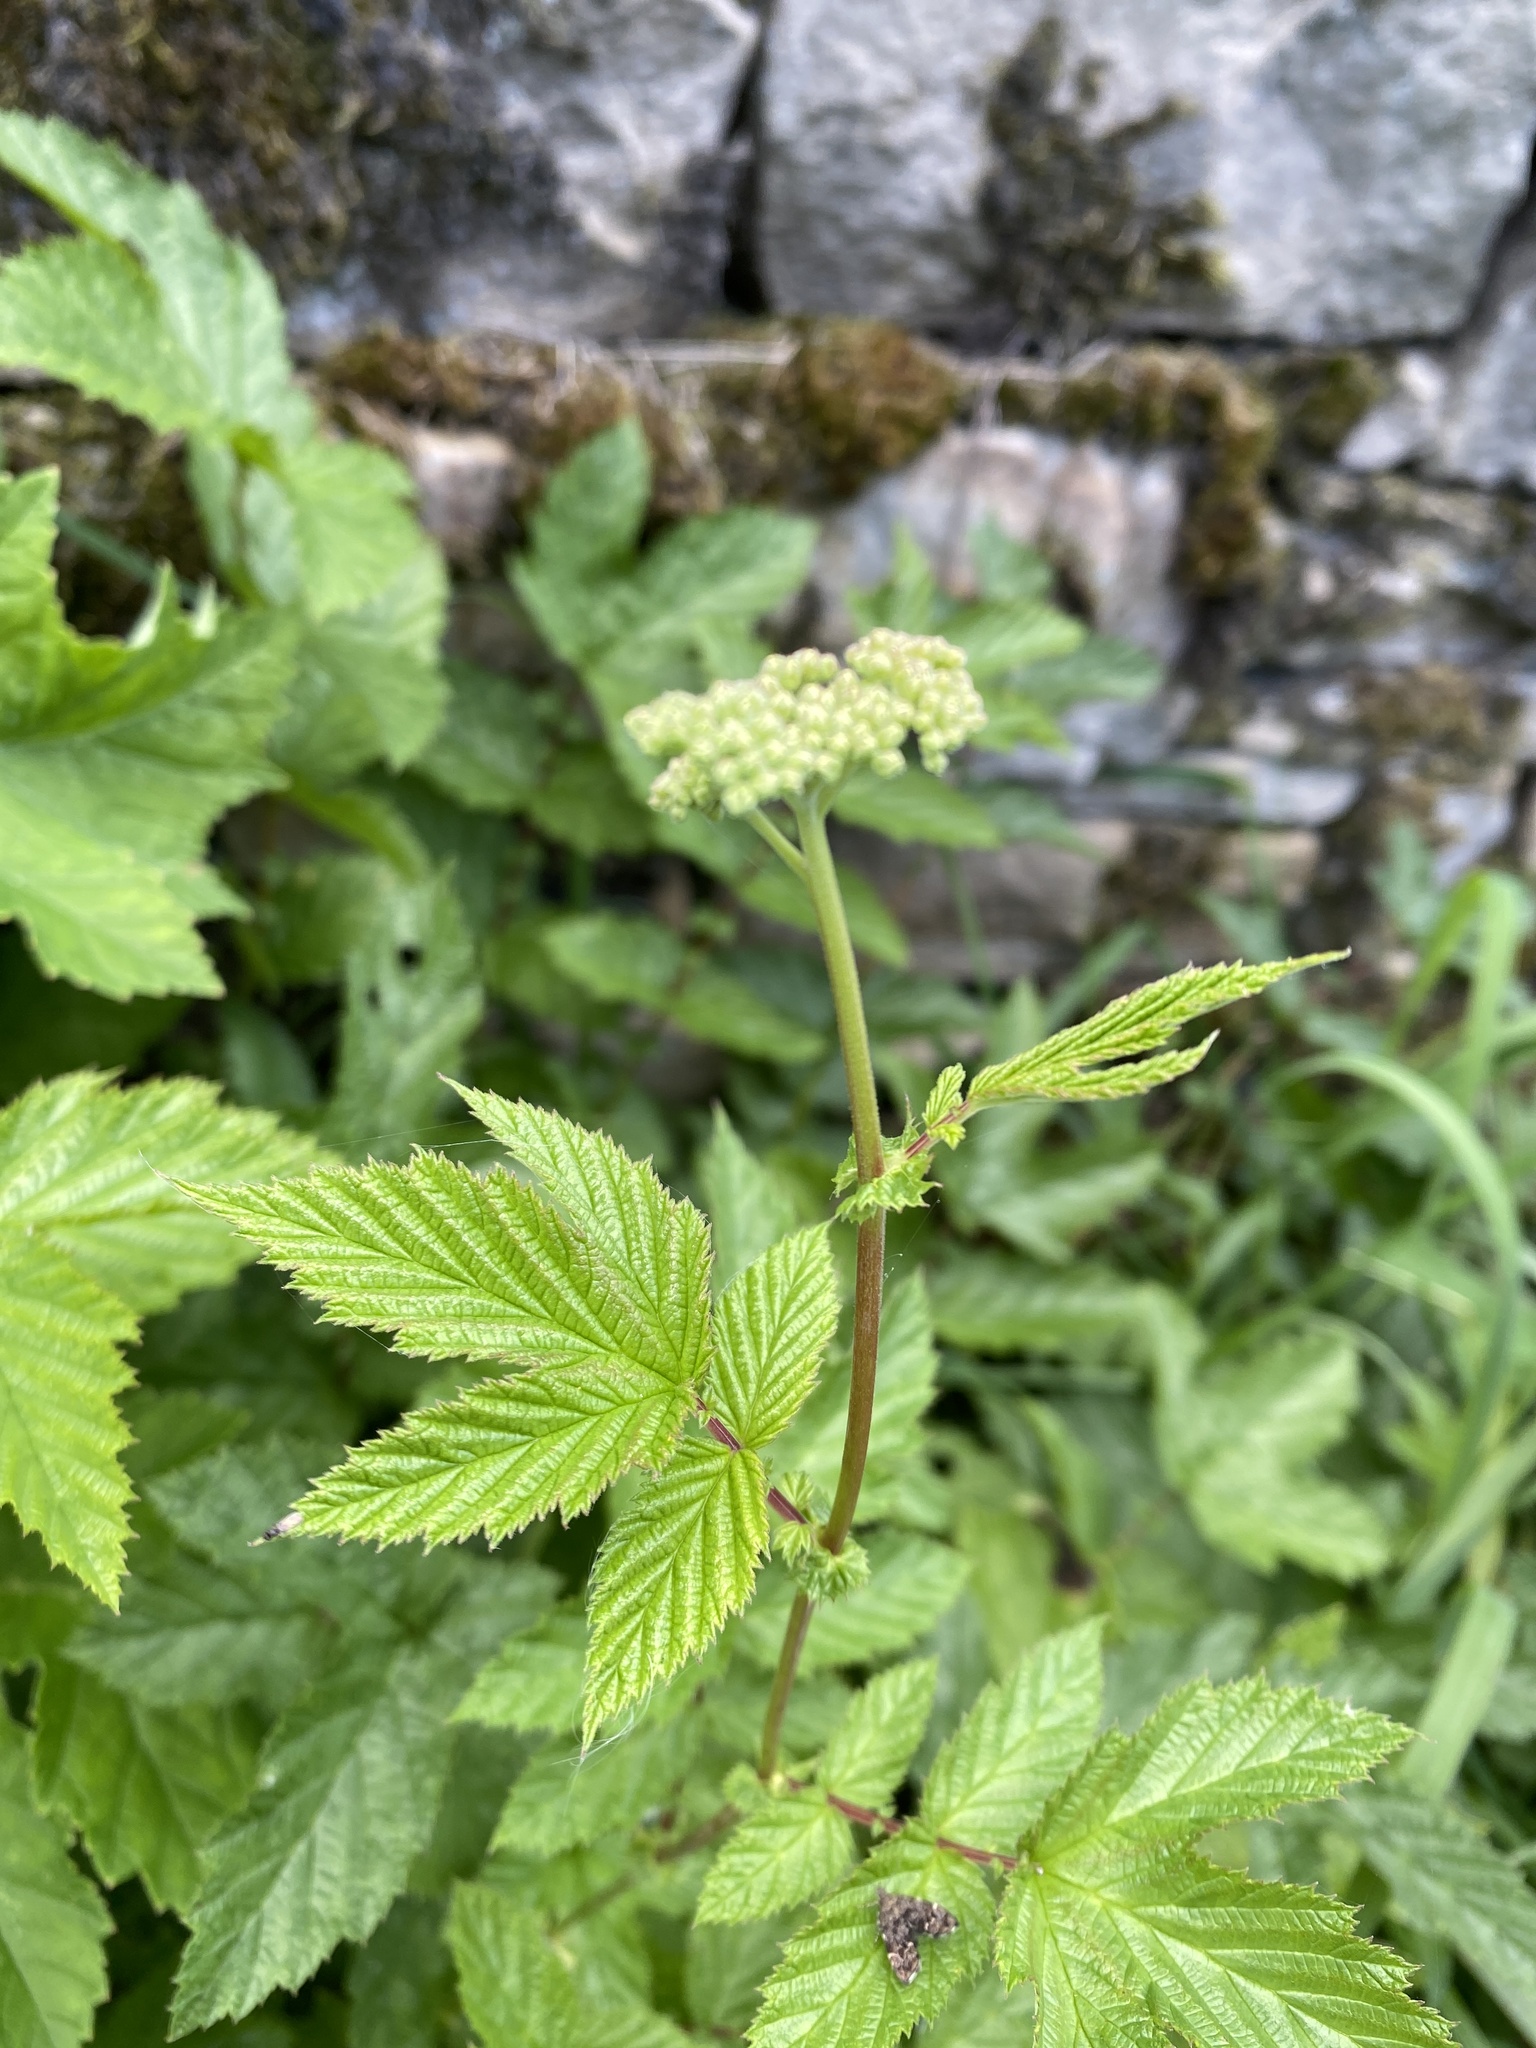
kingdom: Plantae
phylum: Tracheophyta
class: Magnoliopsida
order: Rosales
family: Rosaceae
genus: Filipendula
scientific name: Filipendula ulmaria
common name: Meadowsweet
